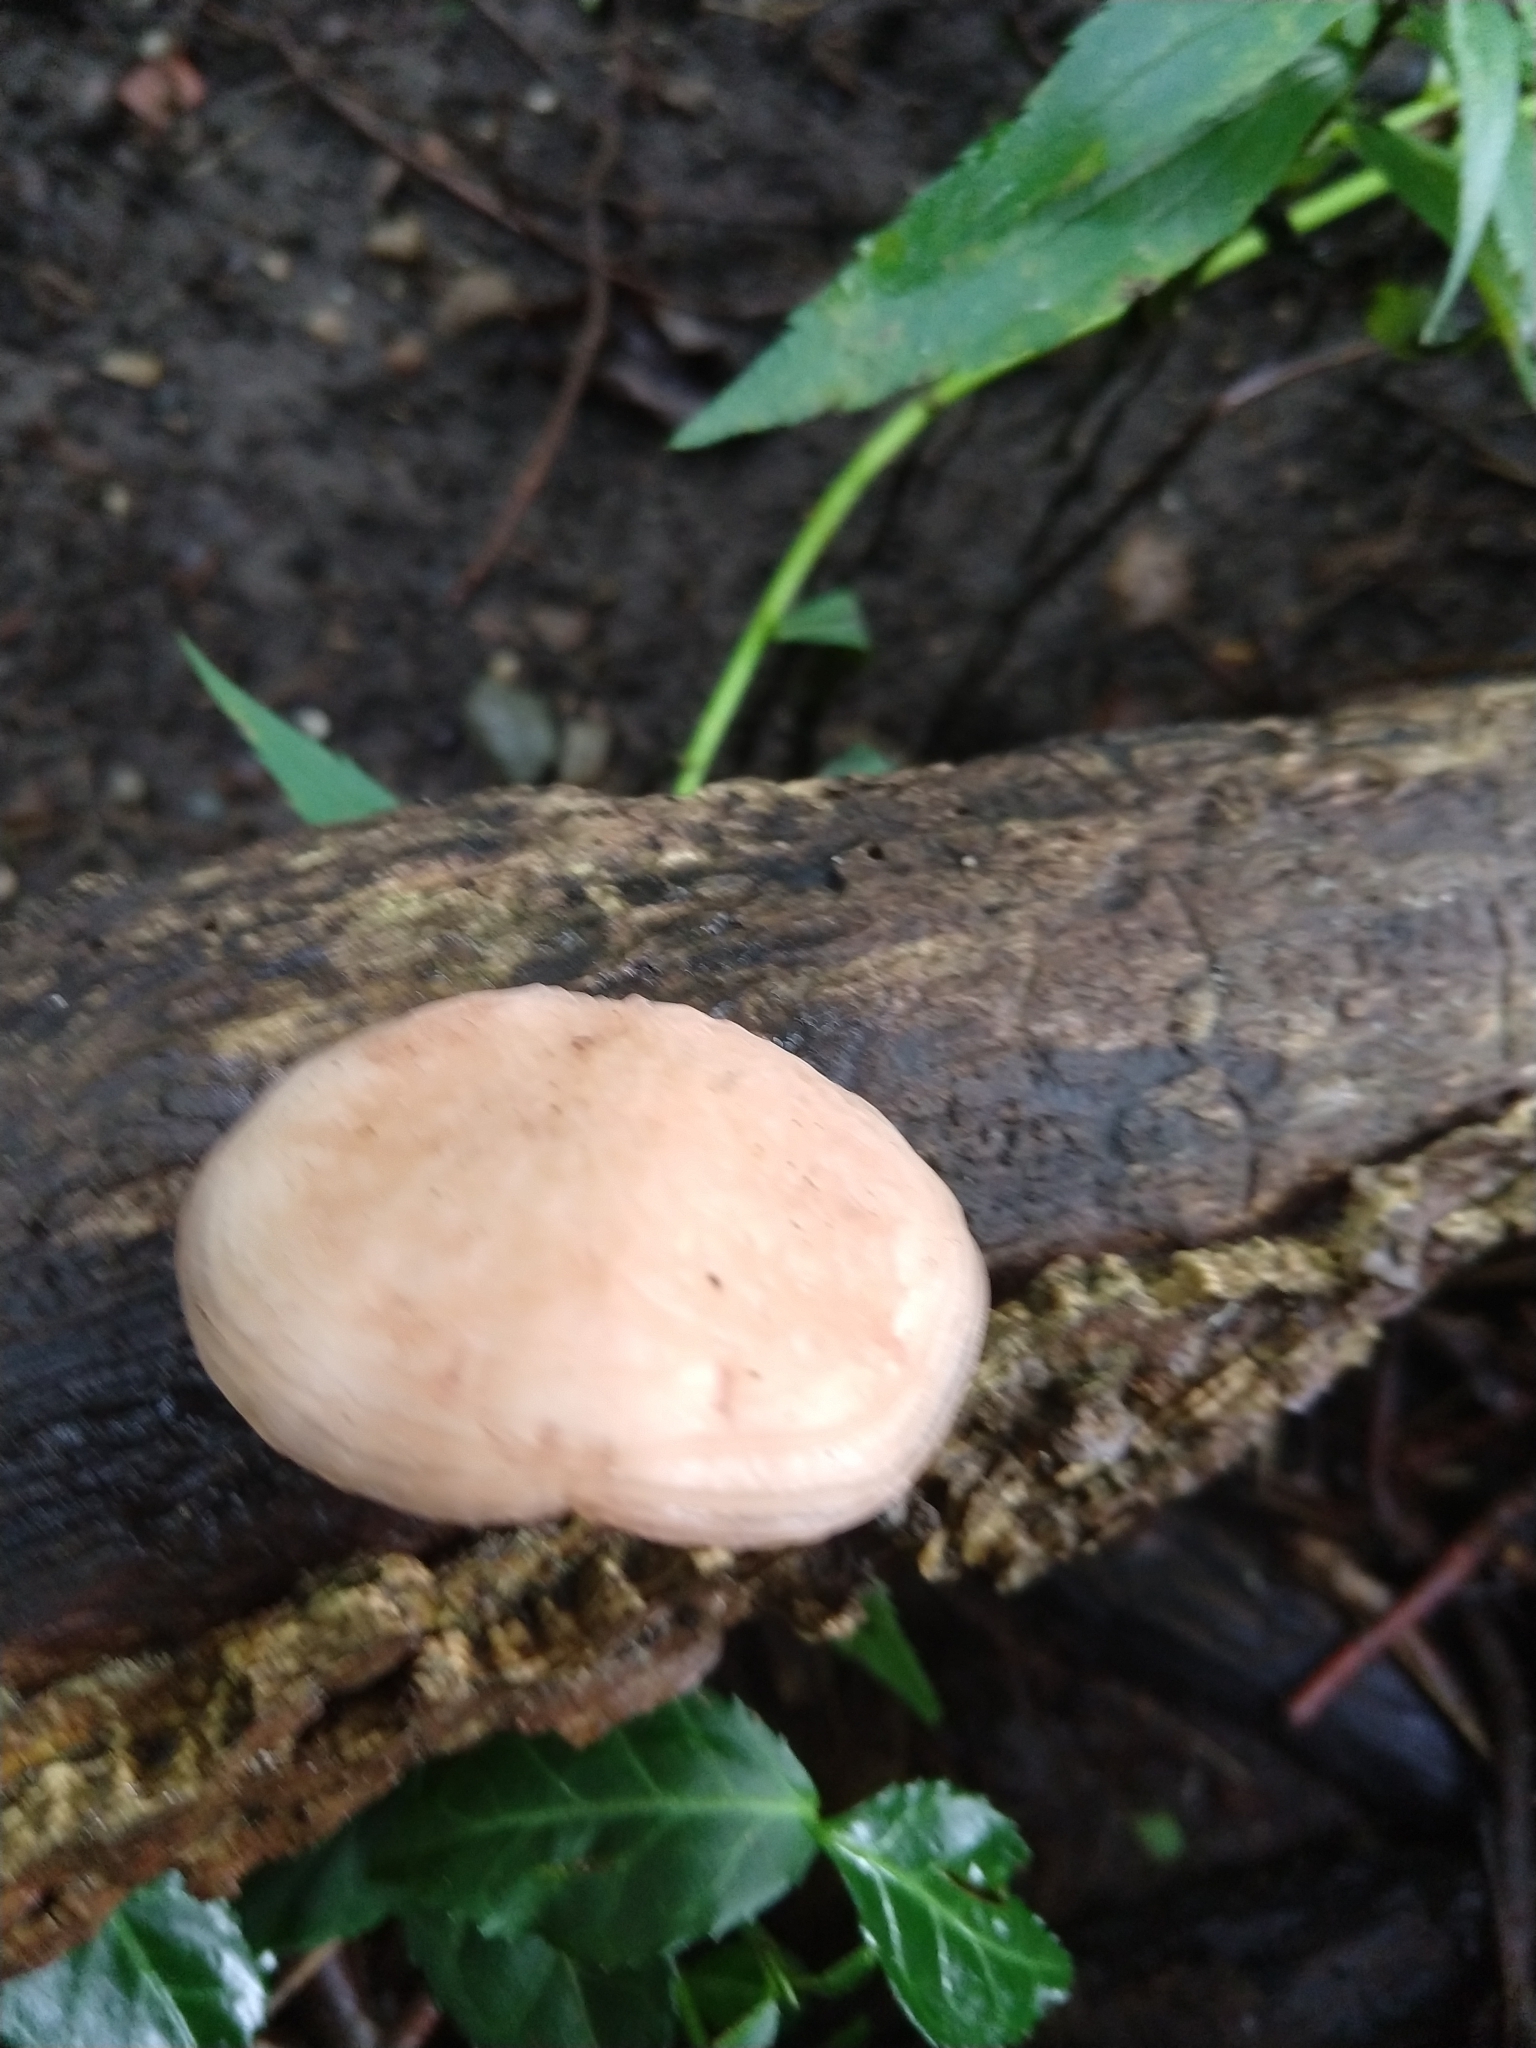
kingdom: Fungi
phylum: Basidiomycota
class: Agaricomycetes
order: Agaricales
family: Physalacriaceae
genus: Rhodotus
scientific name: Rhodotus palmatus
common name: Wrinkled peach
